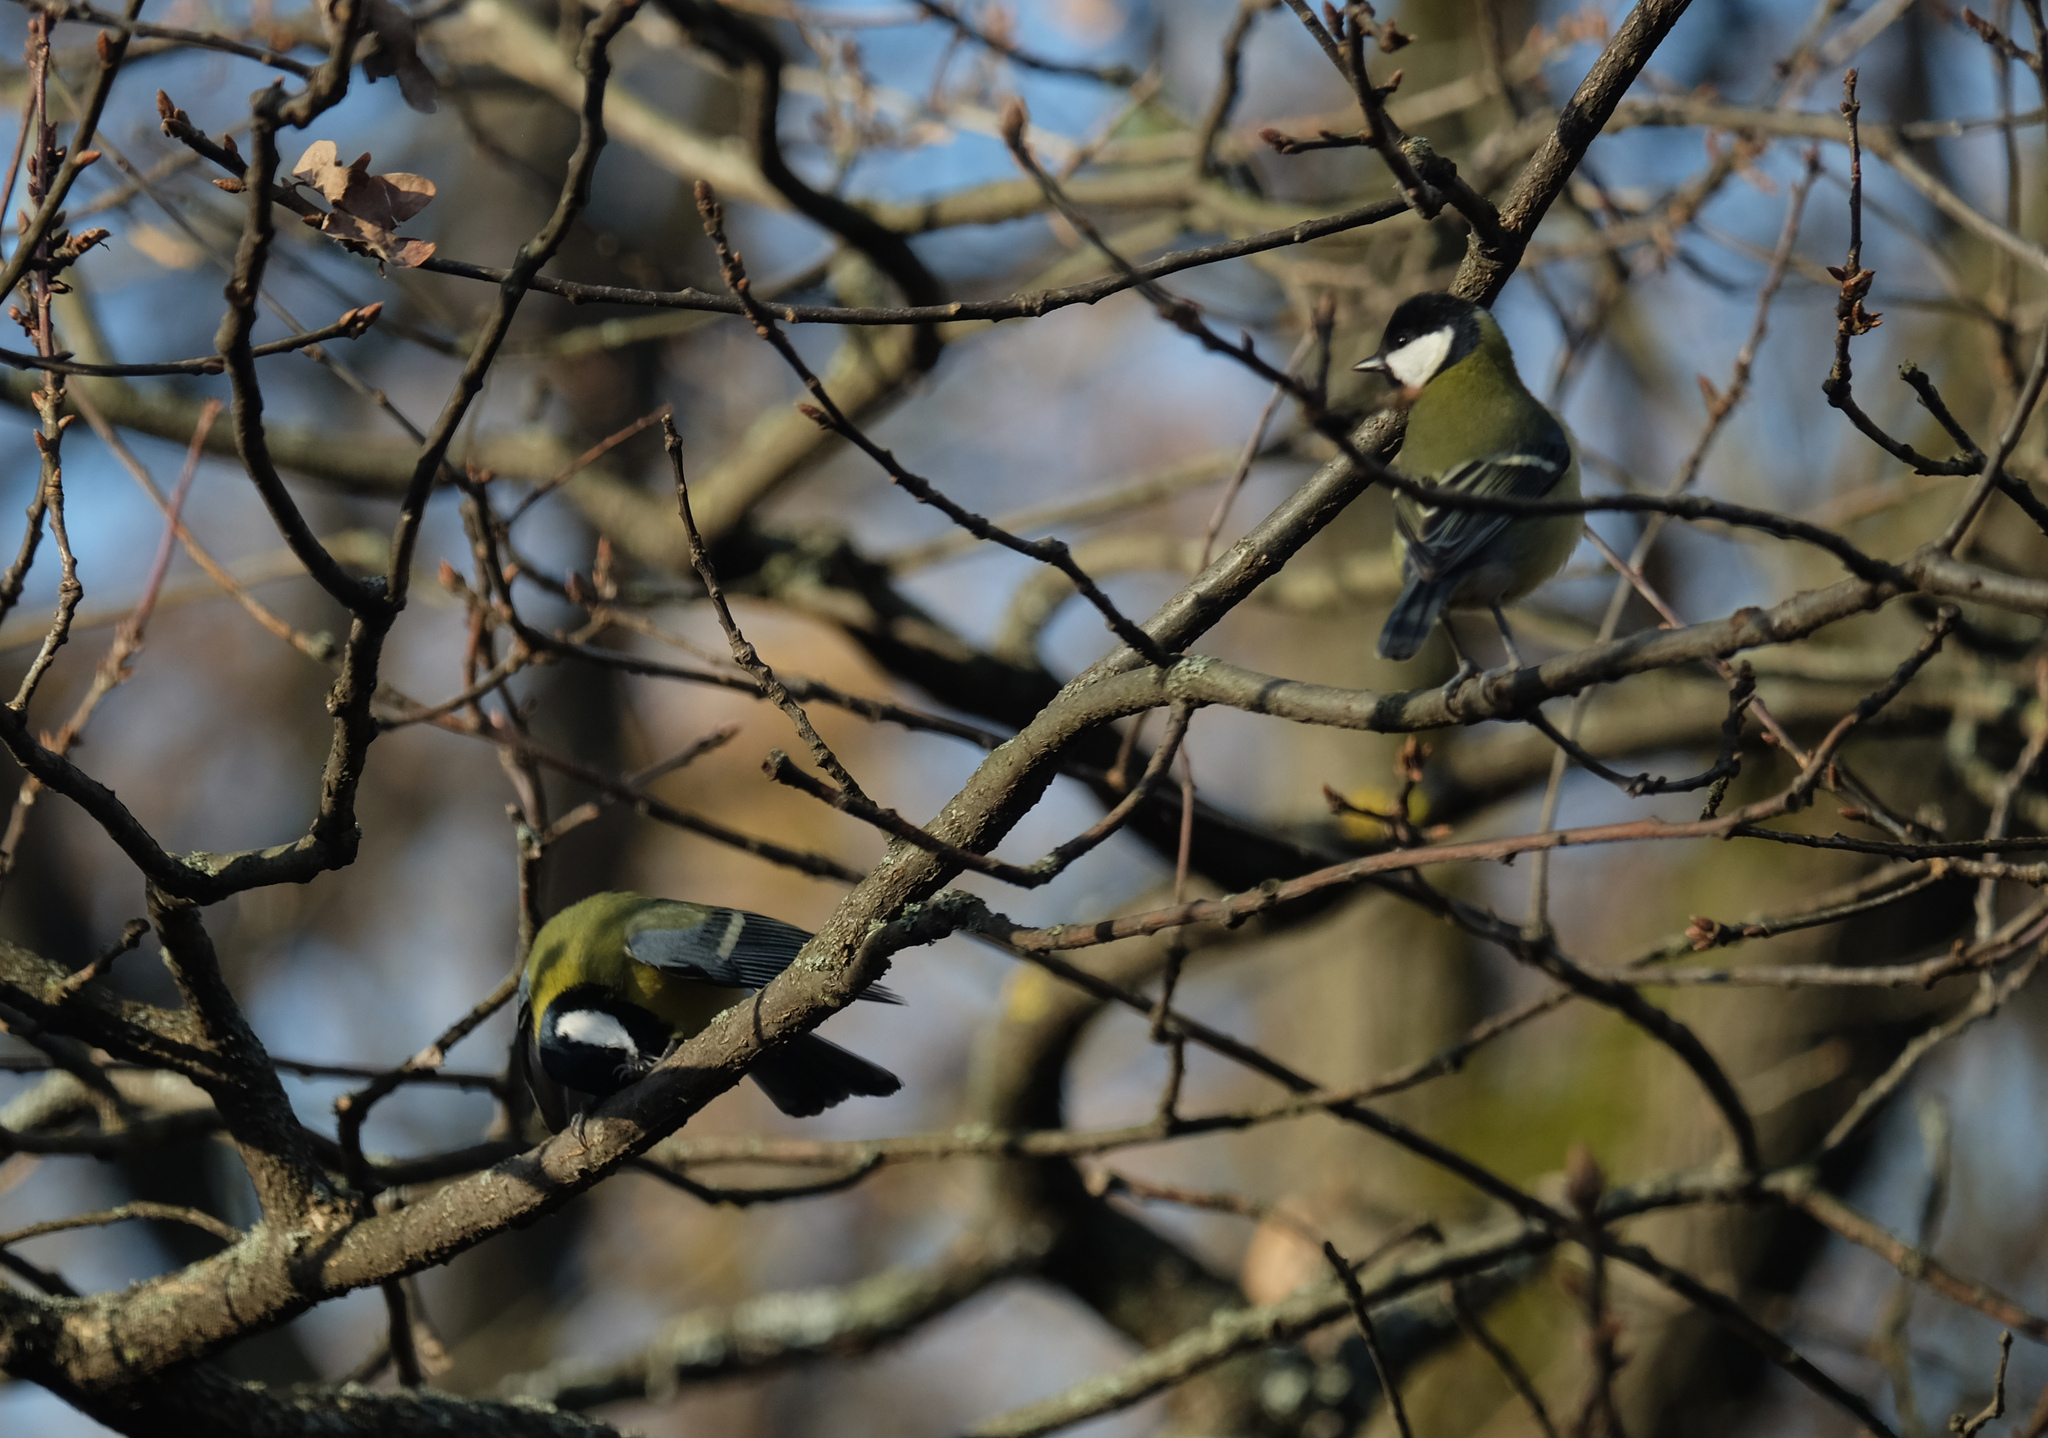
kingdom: Animalia
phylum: Chordata
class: Aves
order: Passeriformes
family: Paridae
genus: Parus
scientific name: Parus major
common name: Great tit
